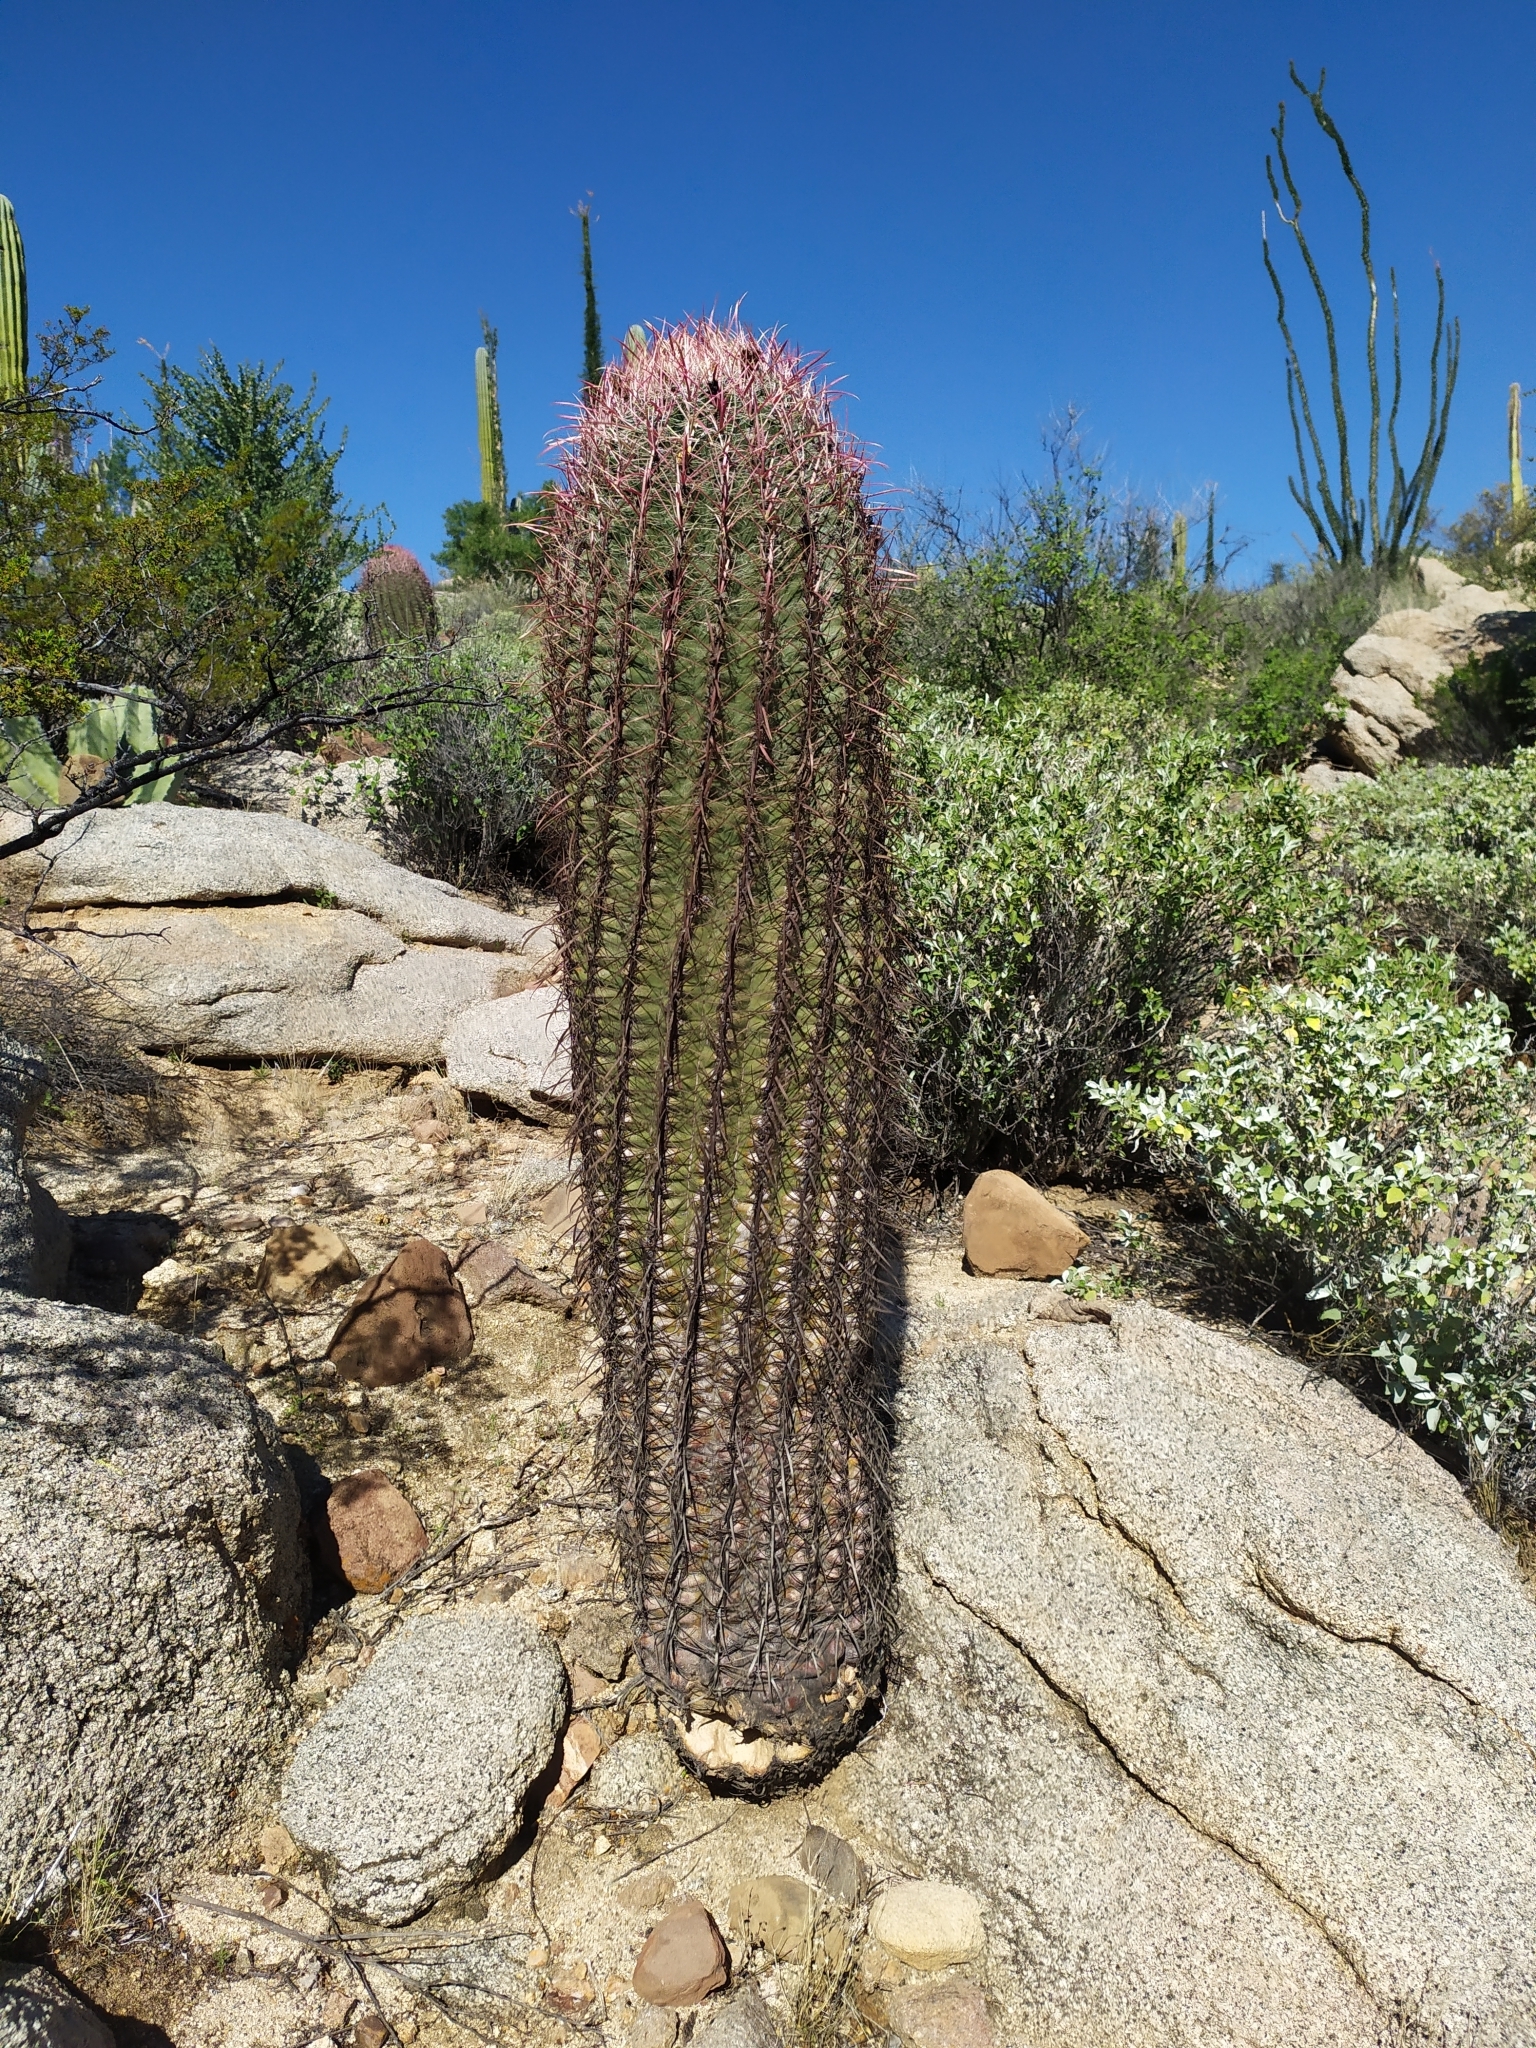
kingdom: Plantae
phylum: Tracheophyta
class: Magnoliopsida
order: Caryophyllales
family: Cactaceae
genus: Ferocactus
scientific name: Ferocactus cylindraceus
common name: California barrel cactus
